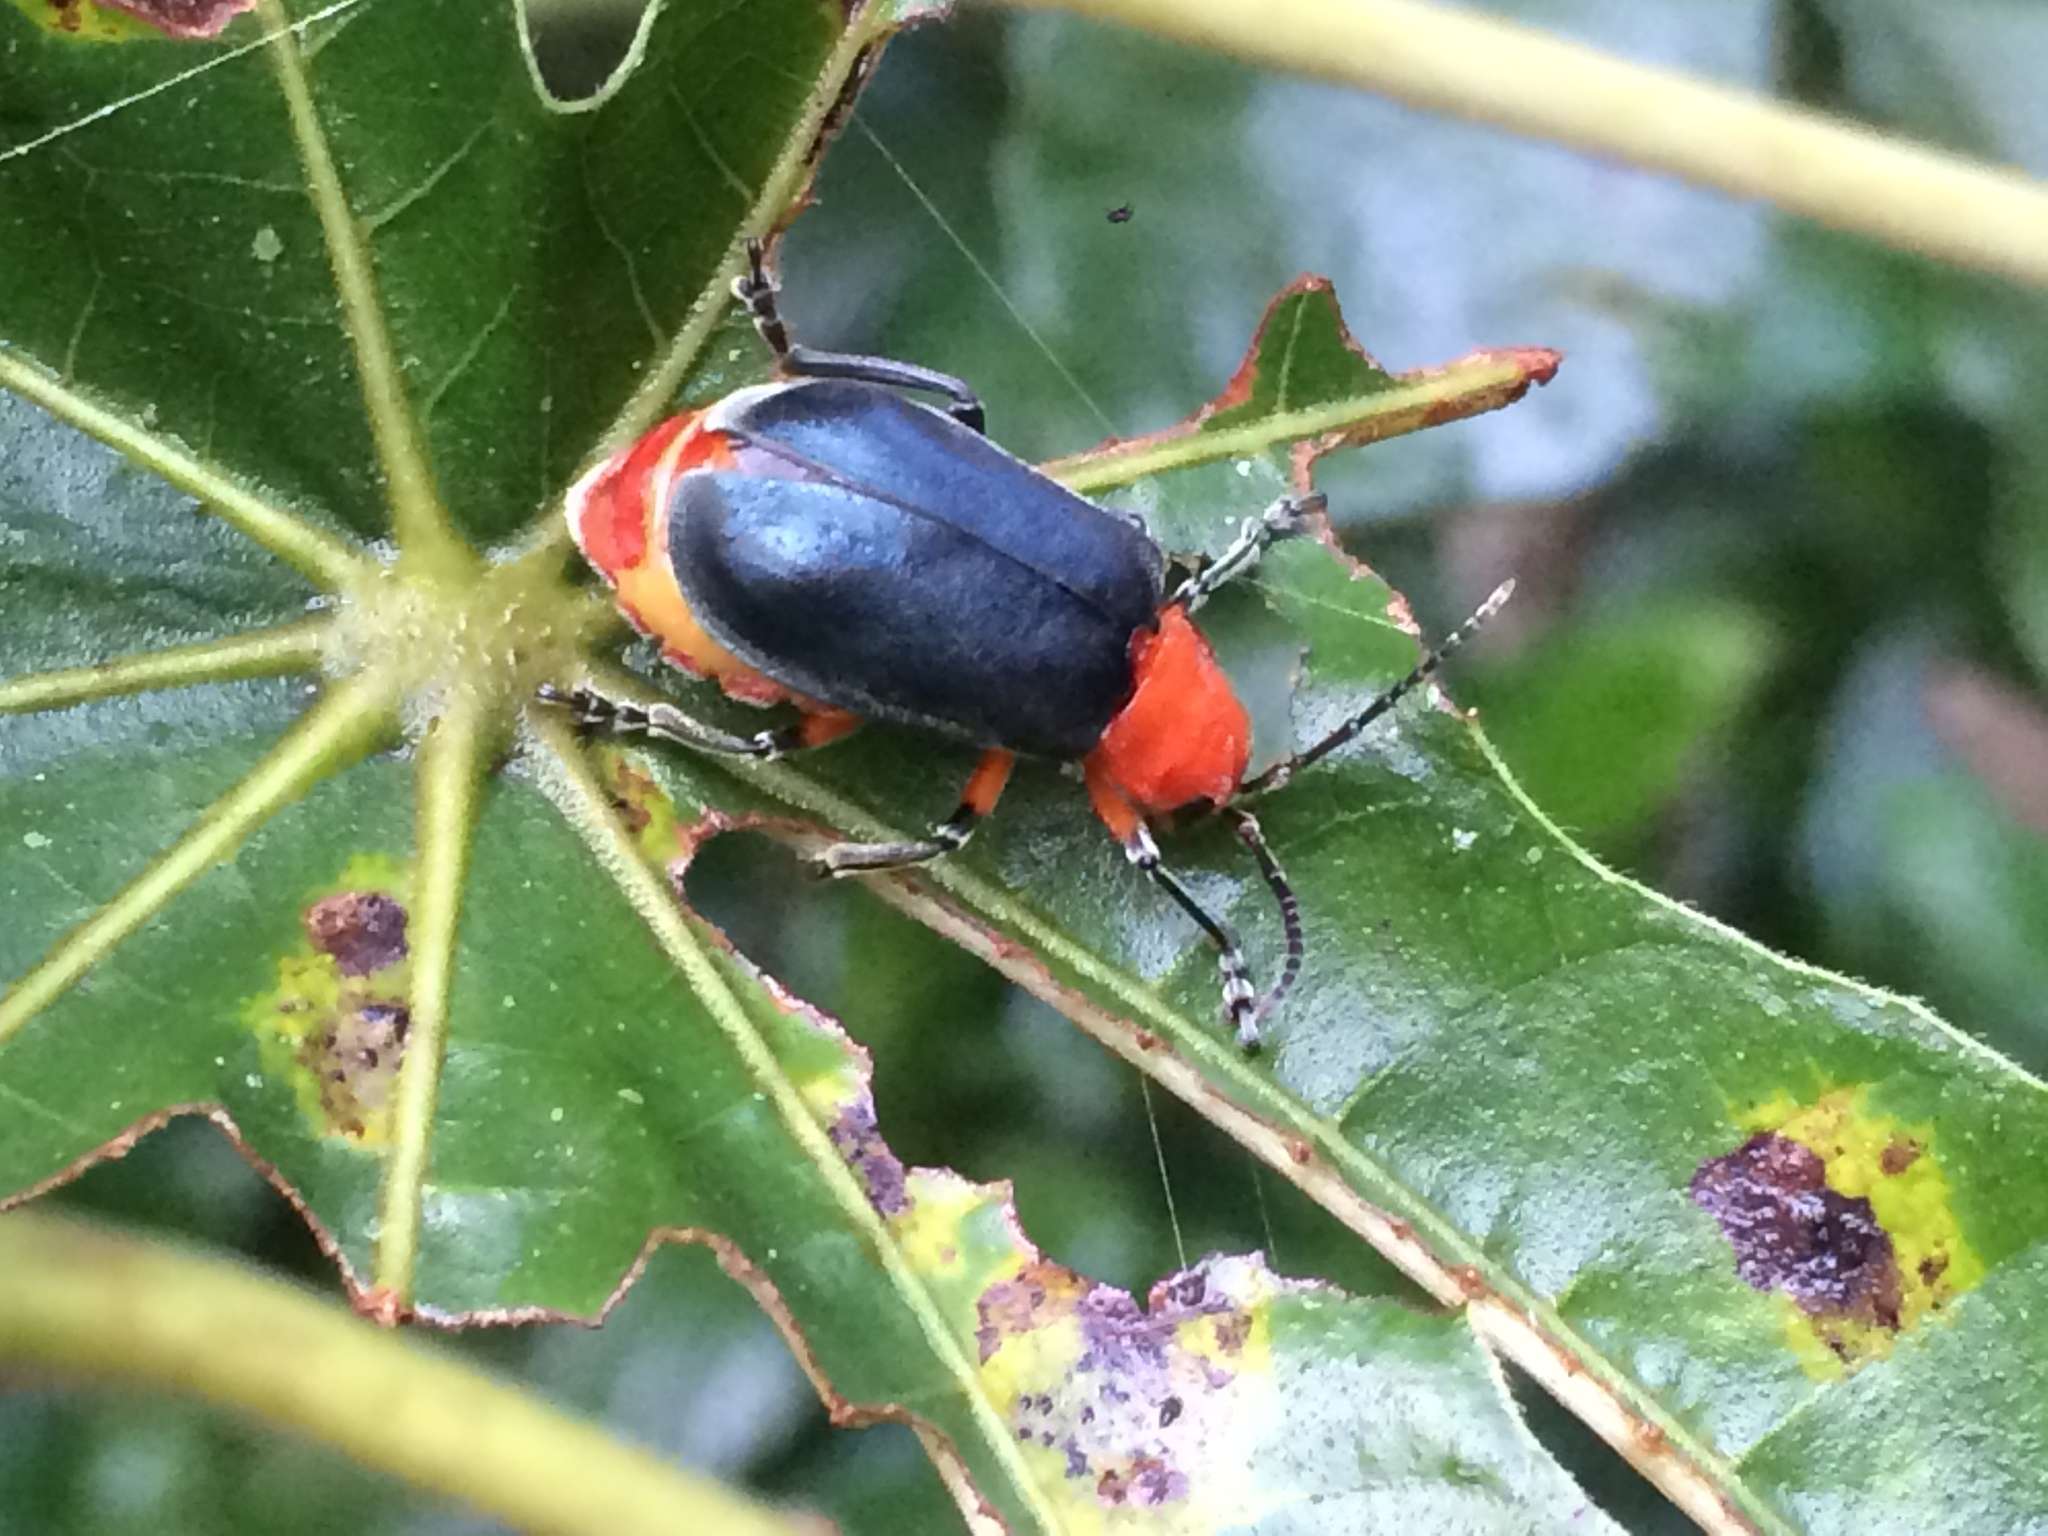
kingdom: Animalia
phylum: Arthropoda
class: Insecta
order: Coleoptera
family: Chrysomelidae
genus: Coelomera
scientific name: Coelomera
